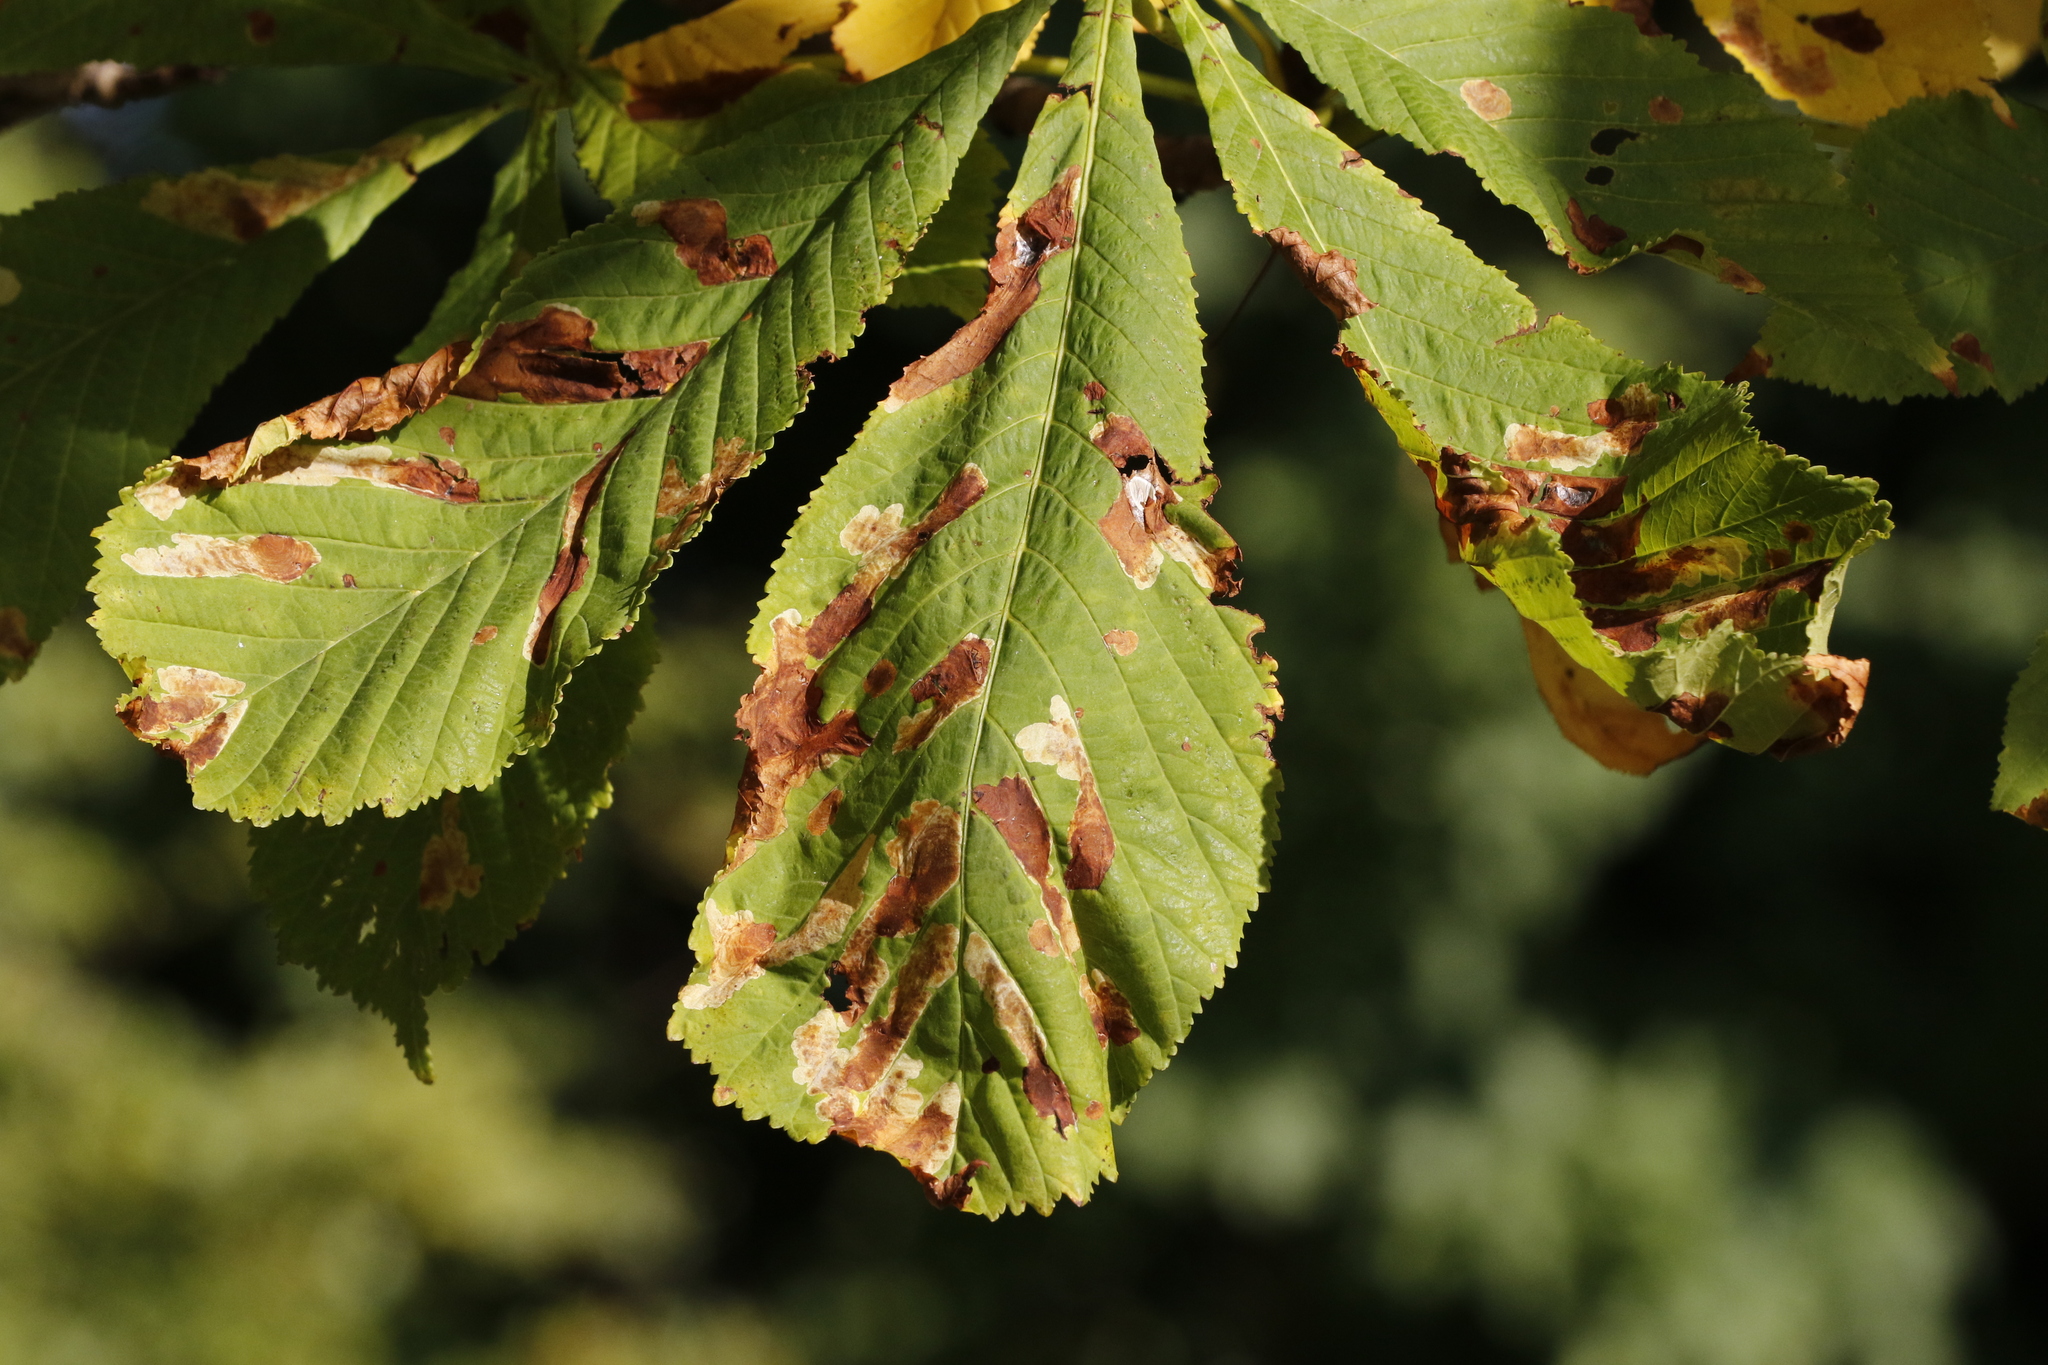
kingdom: Animalia
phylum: Arthropoda
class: Insecta
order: Lepidoptera
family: Gracillariidae
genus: Cameraria
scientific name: Cameraria ohridella
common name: Horse-chestnut leaf-miner
